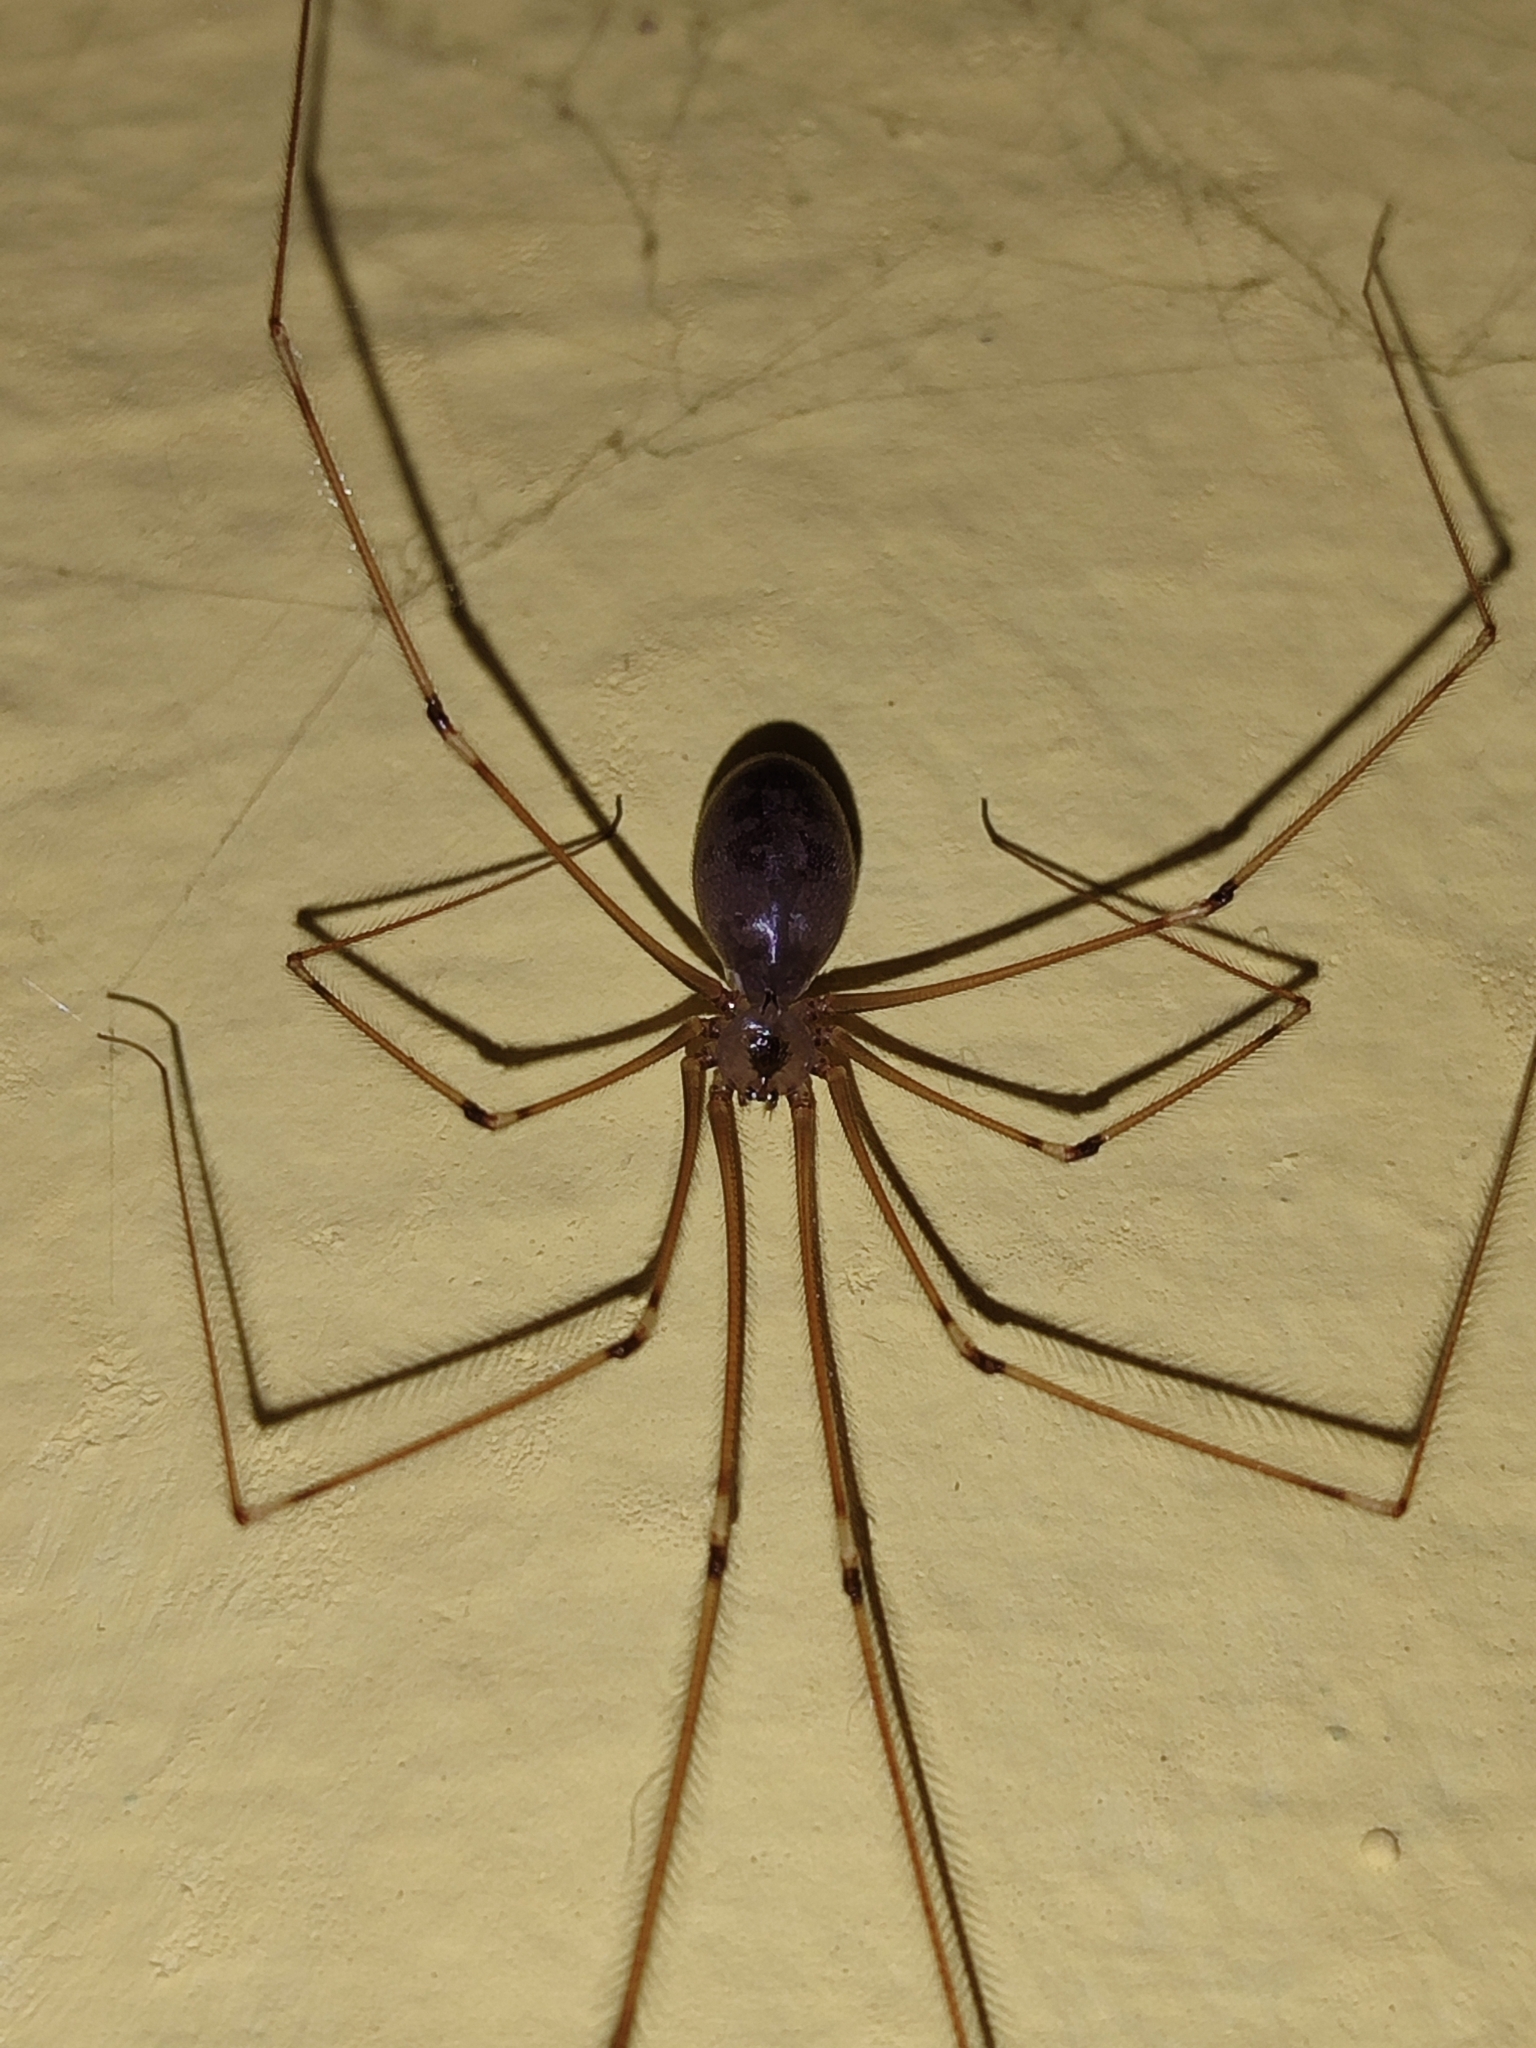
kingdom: Animalia
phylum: Arthropoda
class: Arachnida
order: Araneae
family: Pholcidae
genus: Pholcus
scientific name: Pholcus phalangioides
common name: Longbodied cellar spider
